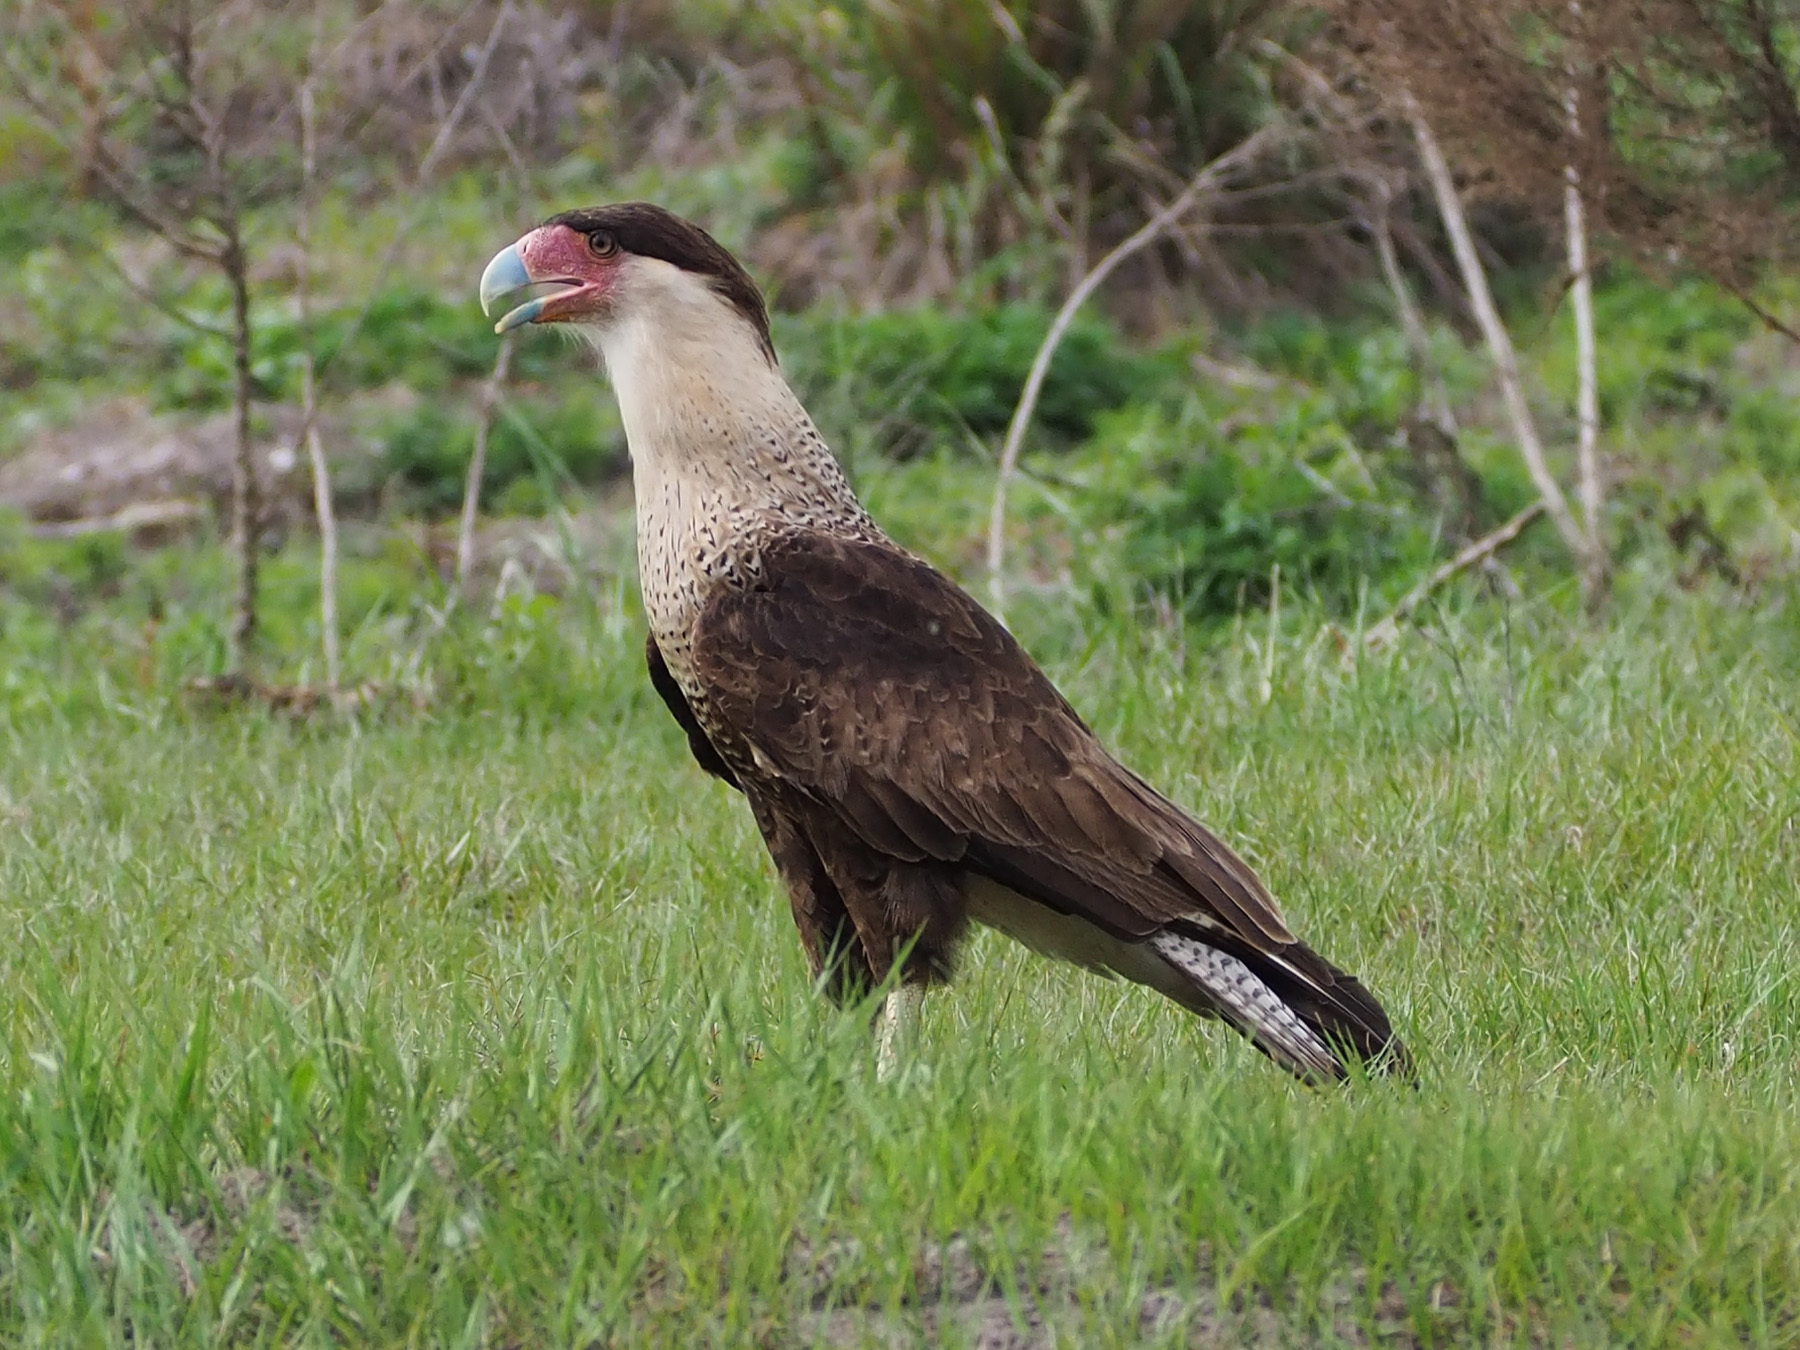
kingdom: Animalia
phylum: Chordata
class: Aves
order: Falconiformes
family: Falconidae
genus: Caracara
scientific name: Caracara plancus
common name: Southern caracara
